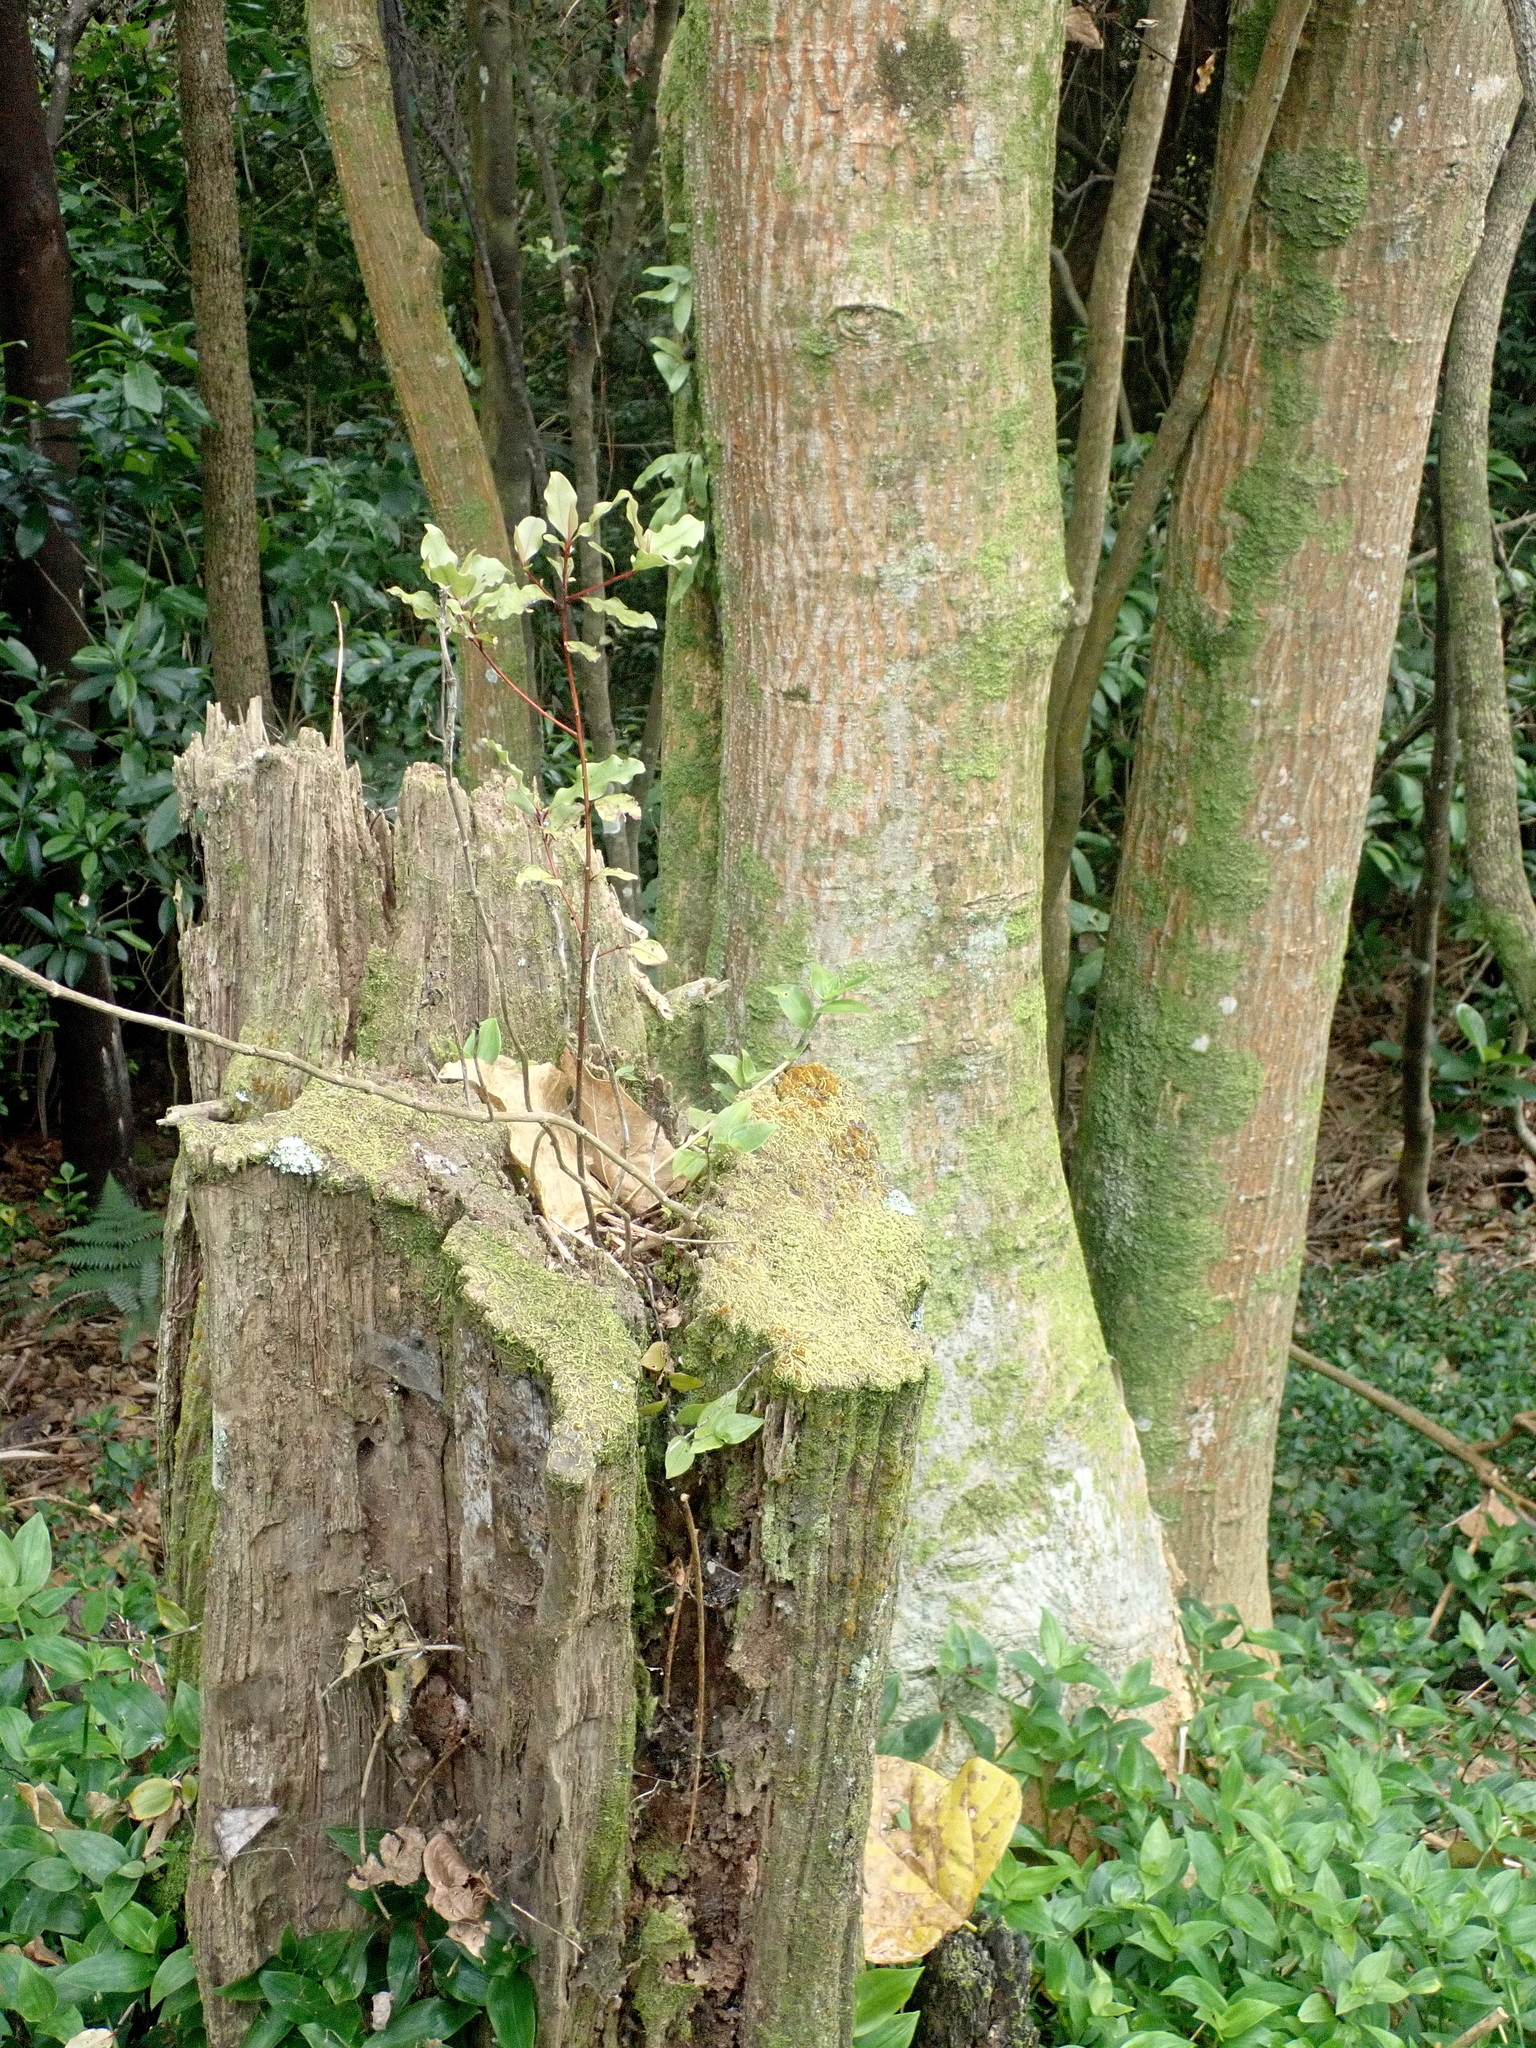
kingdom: Plantae
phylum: Tracheophyta
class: Magnoliopsida
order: Ericales
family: Primulaceae
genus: Myrsine
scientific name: Myrsine australis
